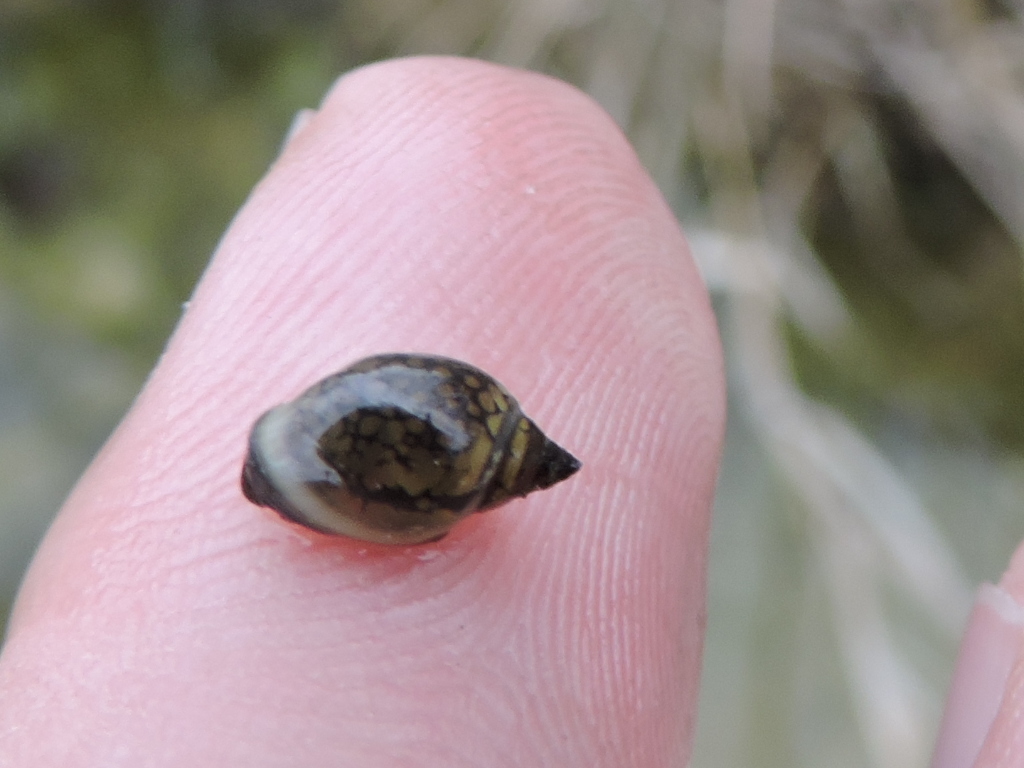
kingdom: Animalia
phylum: Mollusca
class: Gastropoda
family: Physidae
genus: Physella
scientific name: Physella acuta
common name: European physa
